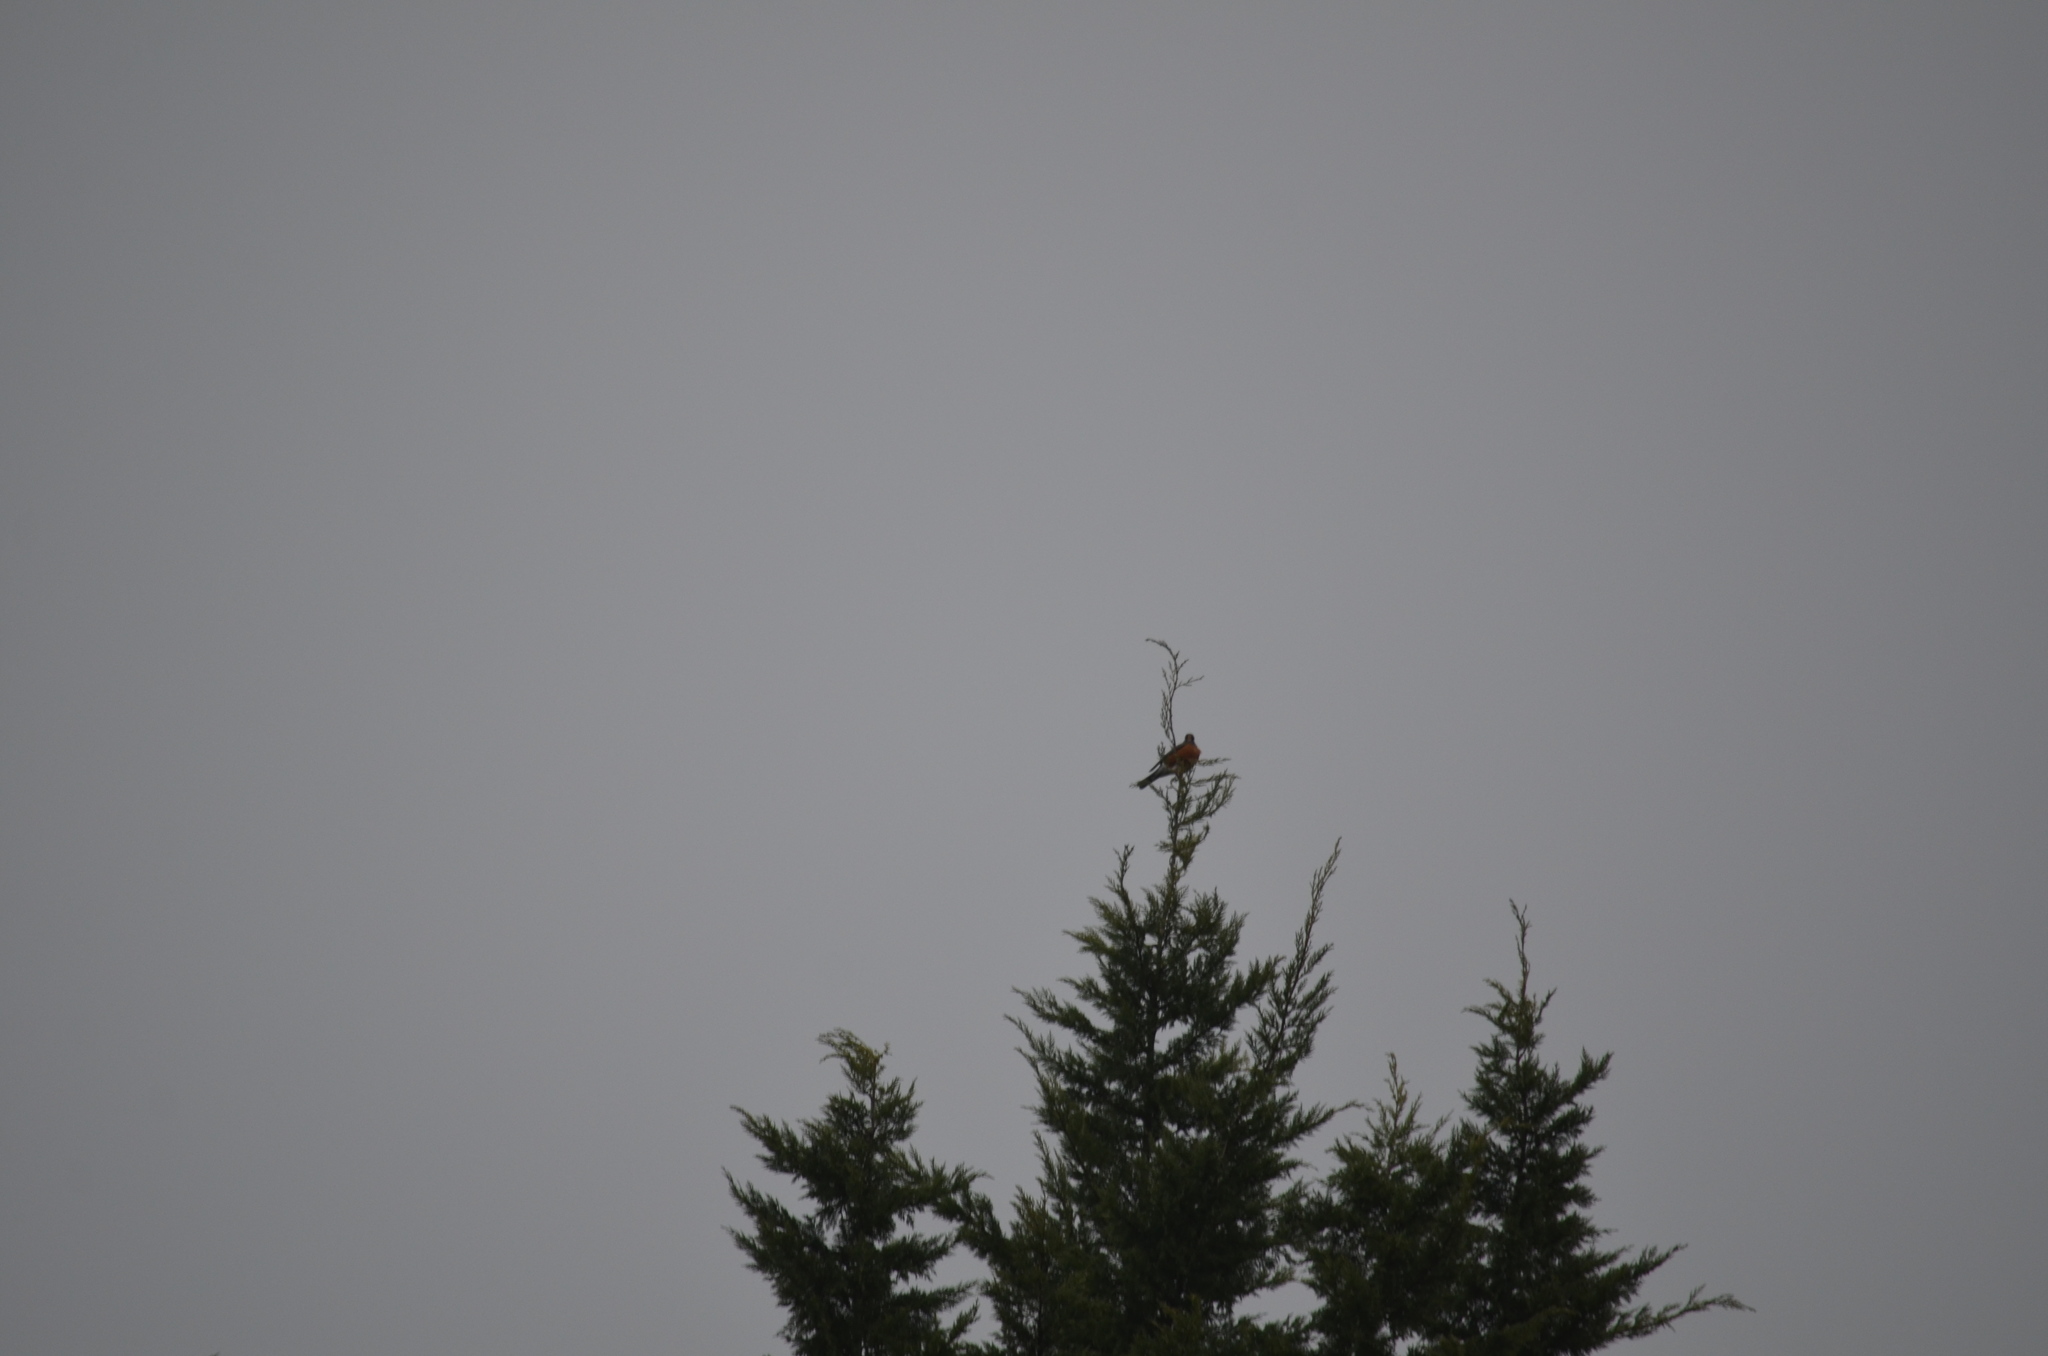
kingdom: Animalia
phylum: Chordata
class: Aves
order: Passeriformes
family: Turdidae
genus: Turdus
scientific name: Turdus migratorius
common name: American robin
